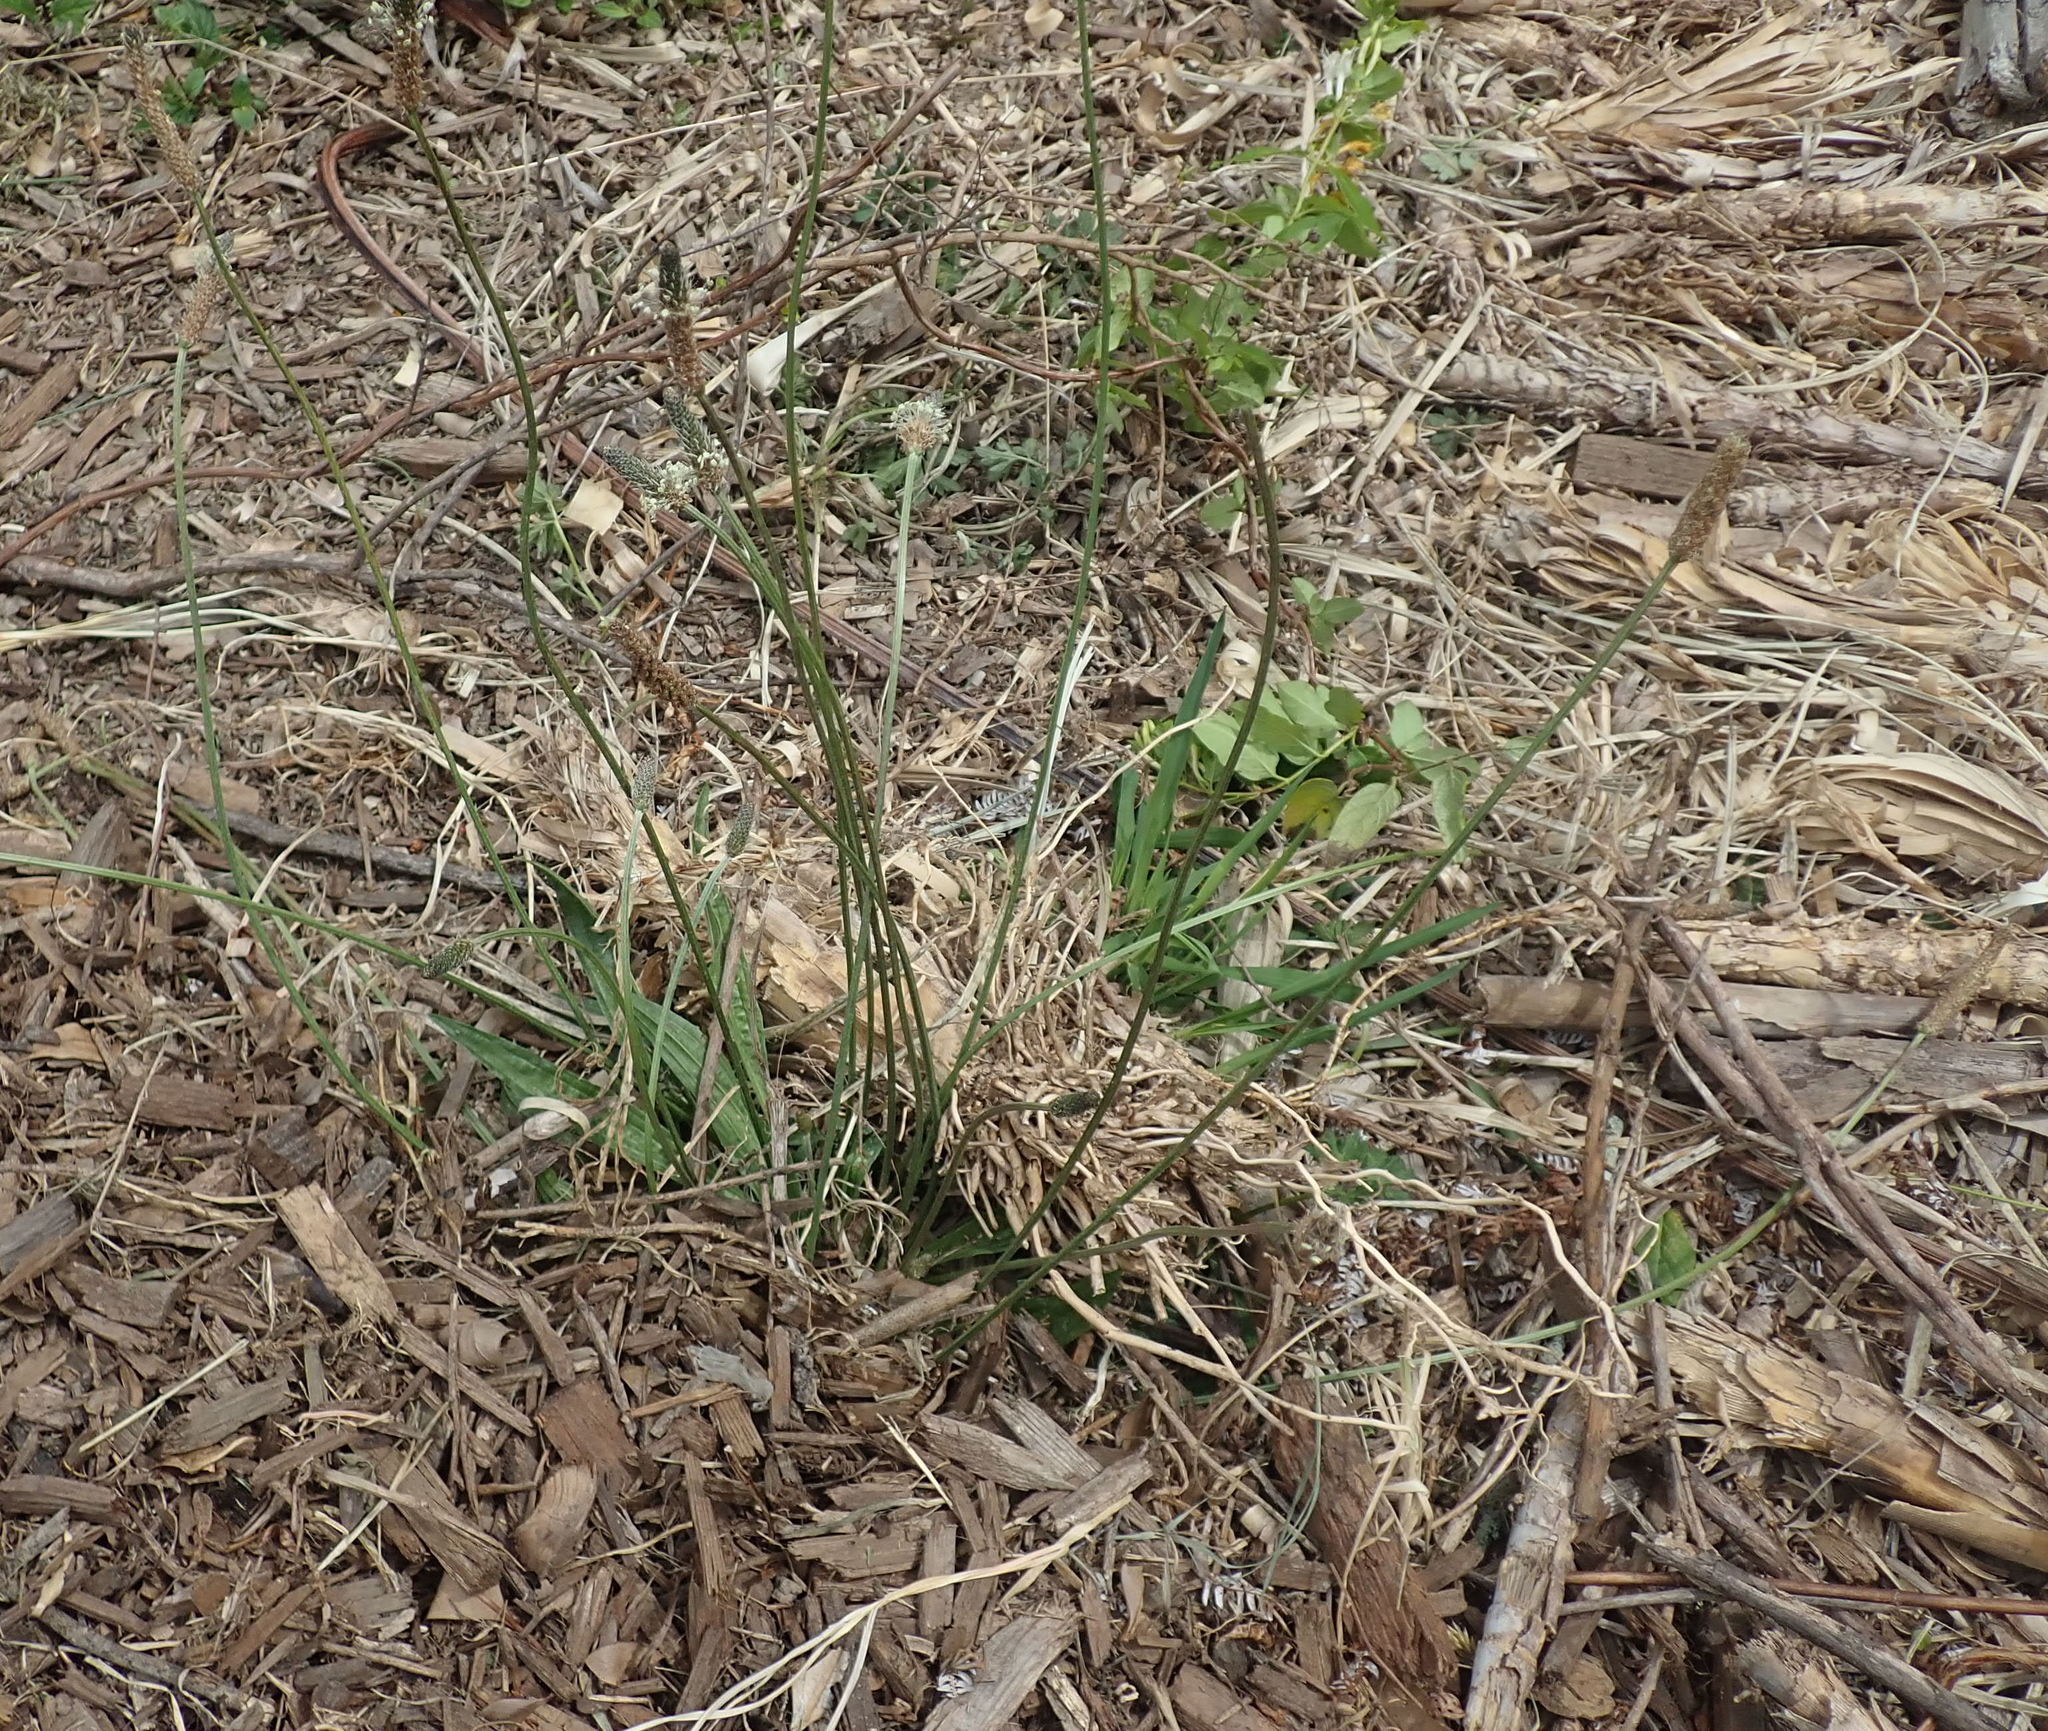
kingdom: Plantae
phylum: Tracheophyta
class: Magnoliopsida
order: Lamiales
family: Plantaginaceae
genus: Plantago
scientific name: Plantago lanceolata
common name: Ribwort plantain
